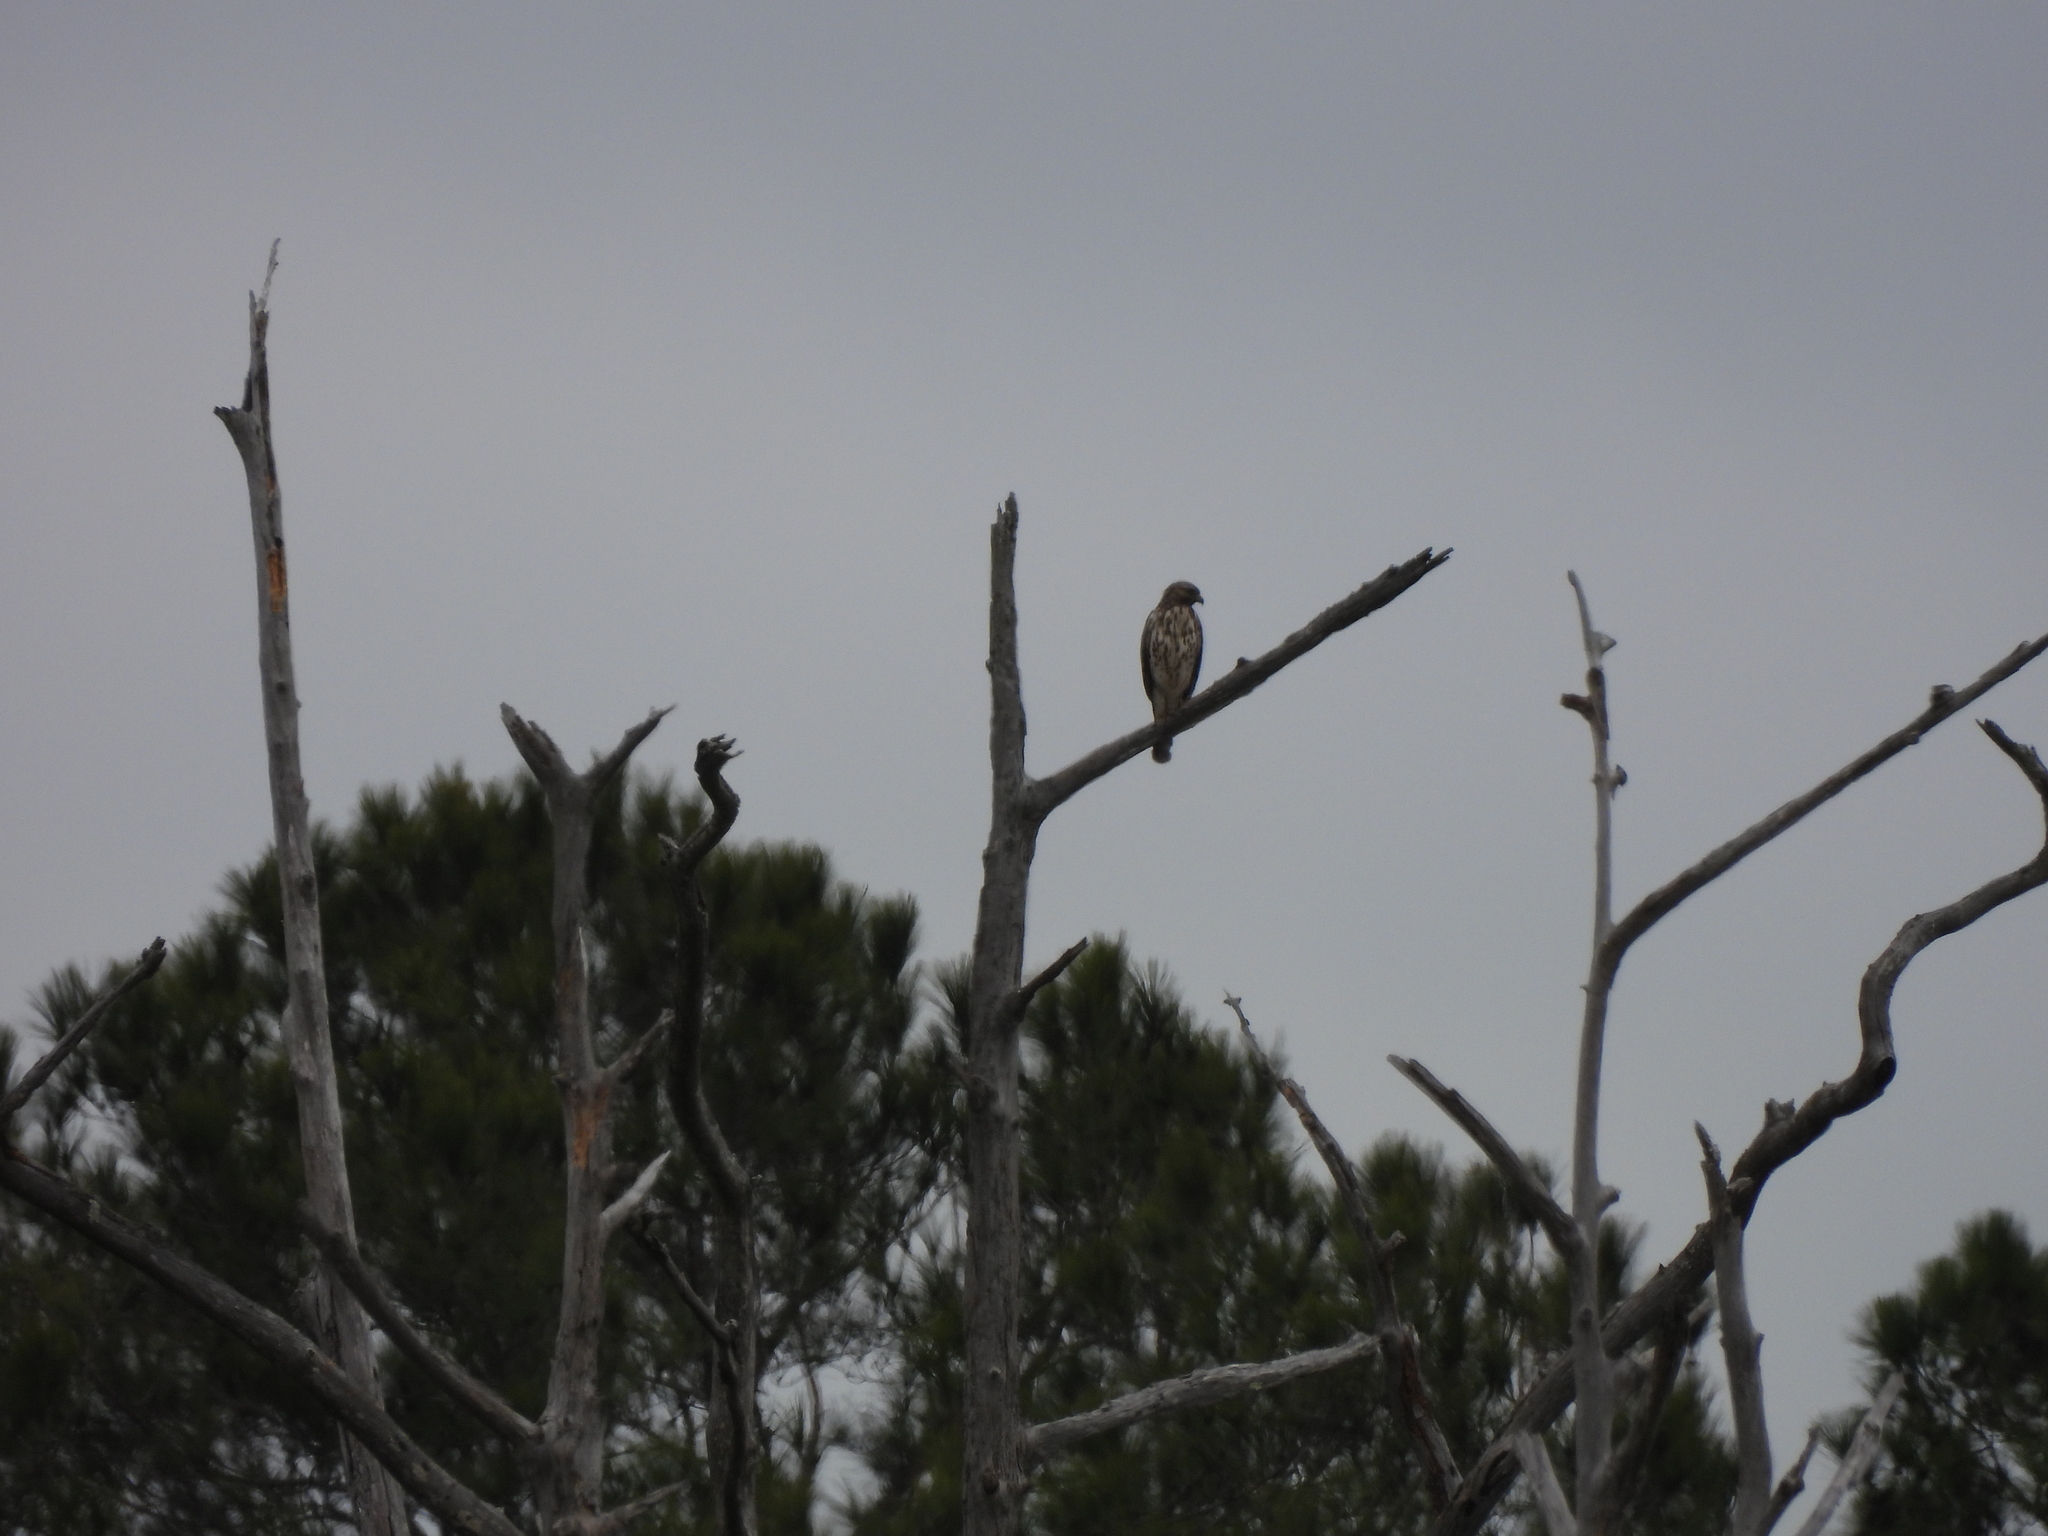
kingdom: Animalia
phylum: Chordata
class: Aves
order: Accipitriformes
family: Accipitridae
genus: Buteo
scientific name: Buteo lineatus
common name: Red-shouldered hawk
